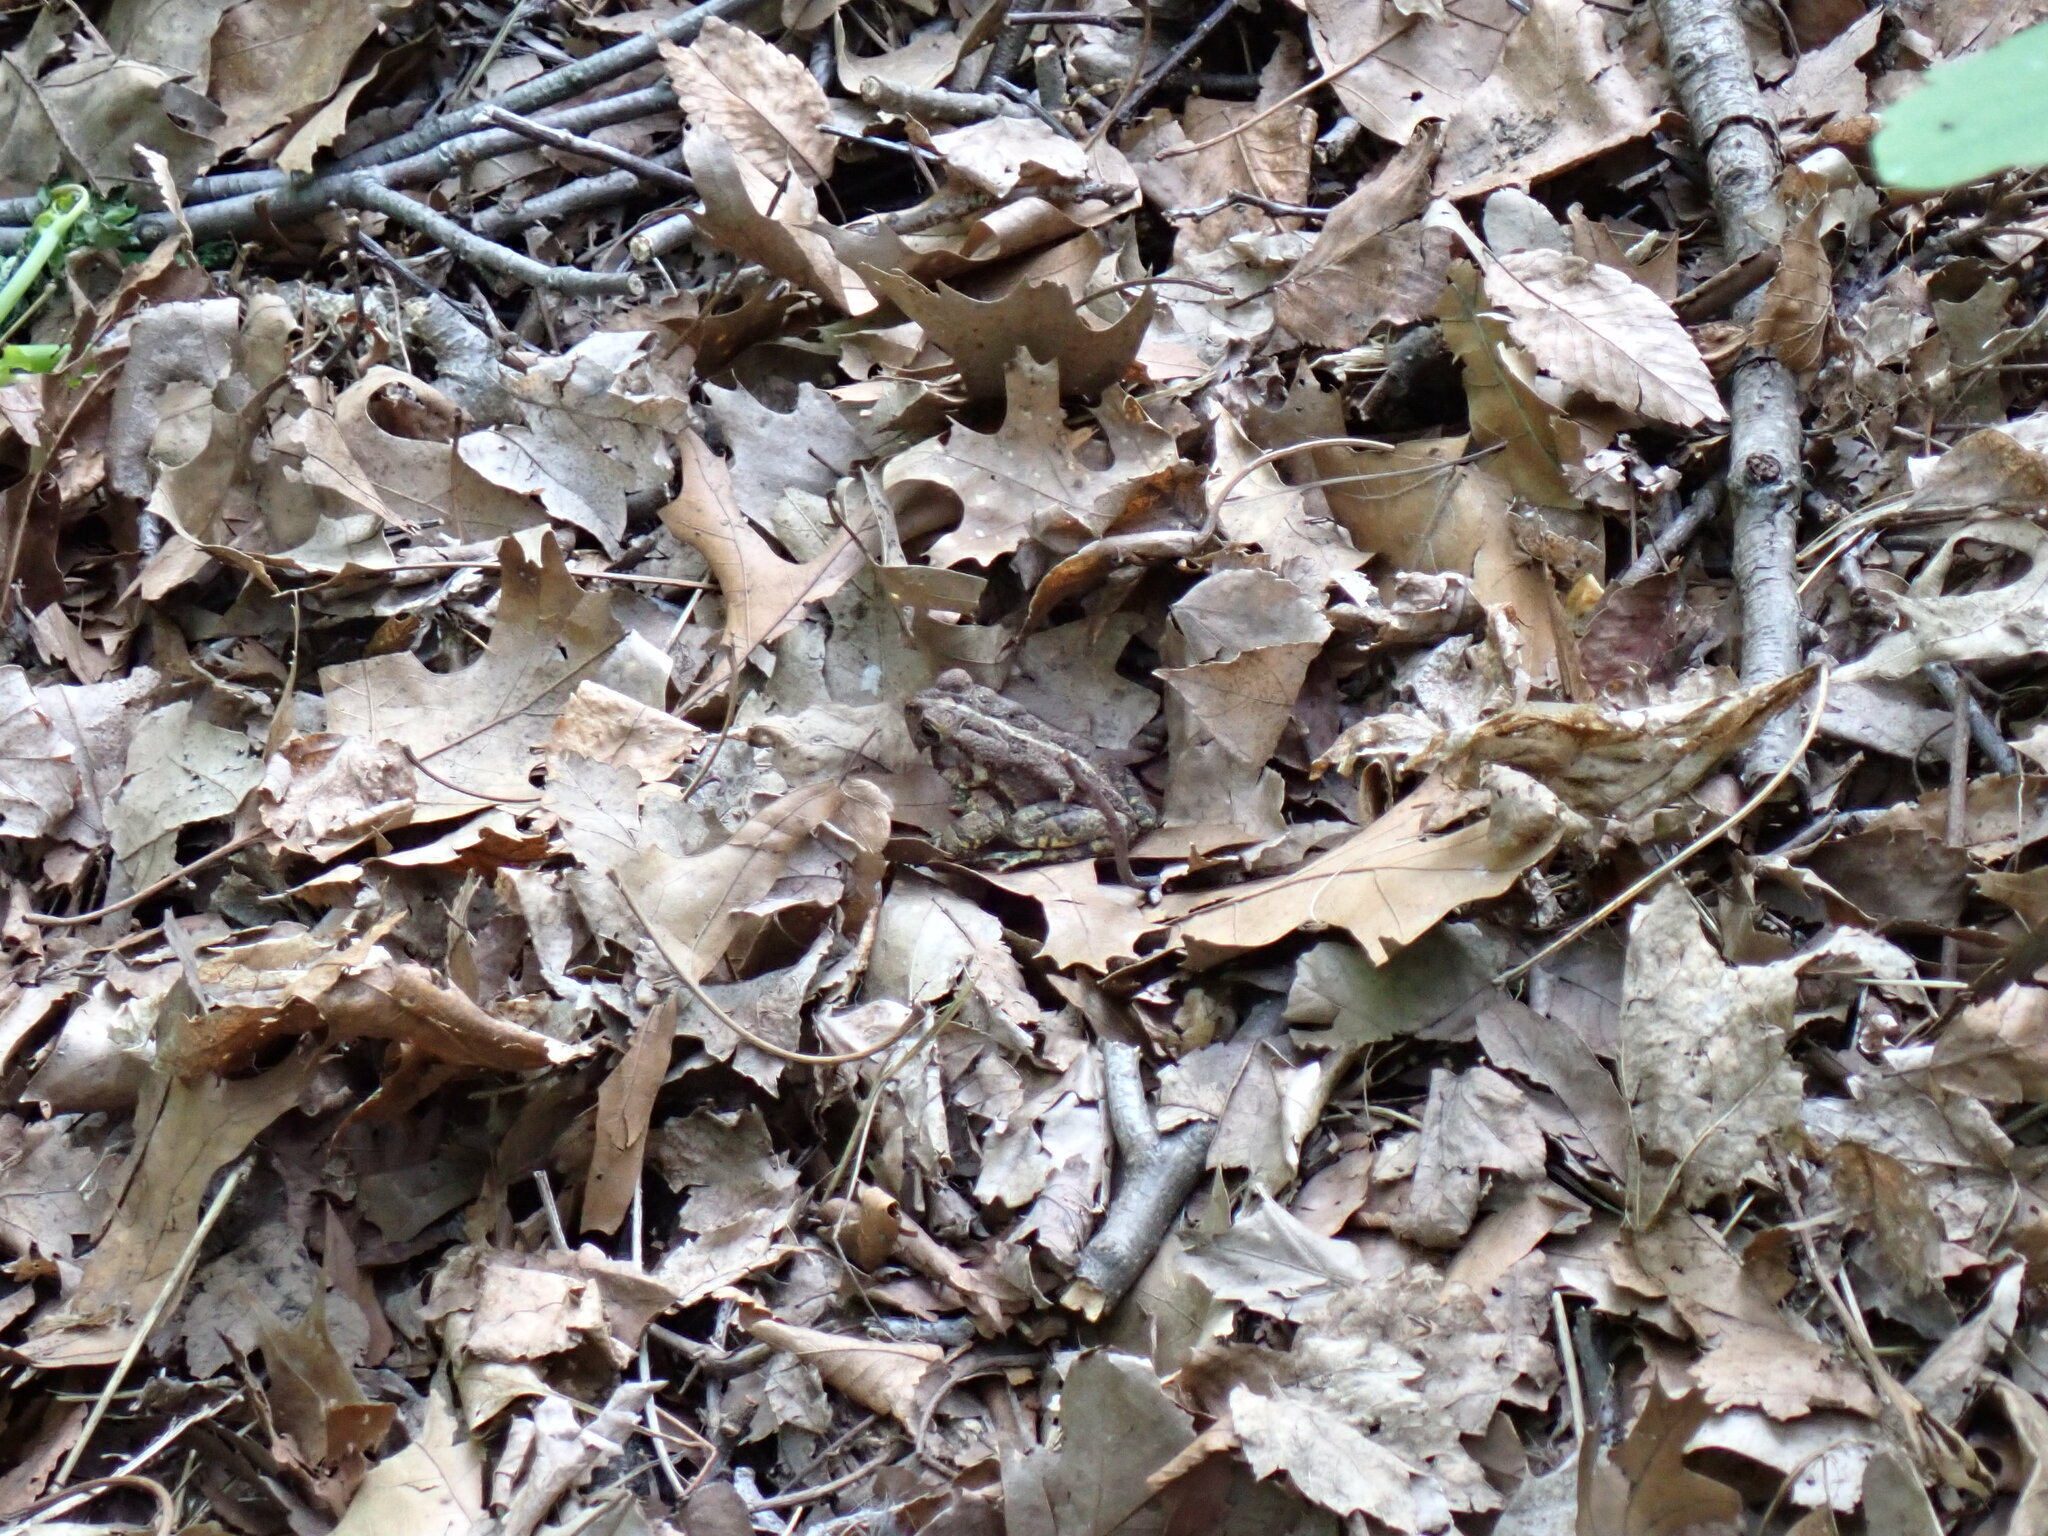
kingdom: Animalia
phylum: Chordata
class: Amphibia
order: Anura
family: Bufonidae
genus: Anaxyrus
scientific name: Anaxyrus fowleri
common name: Fowler's toad
